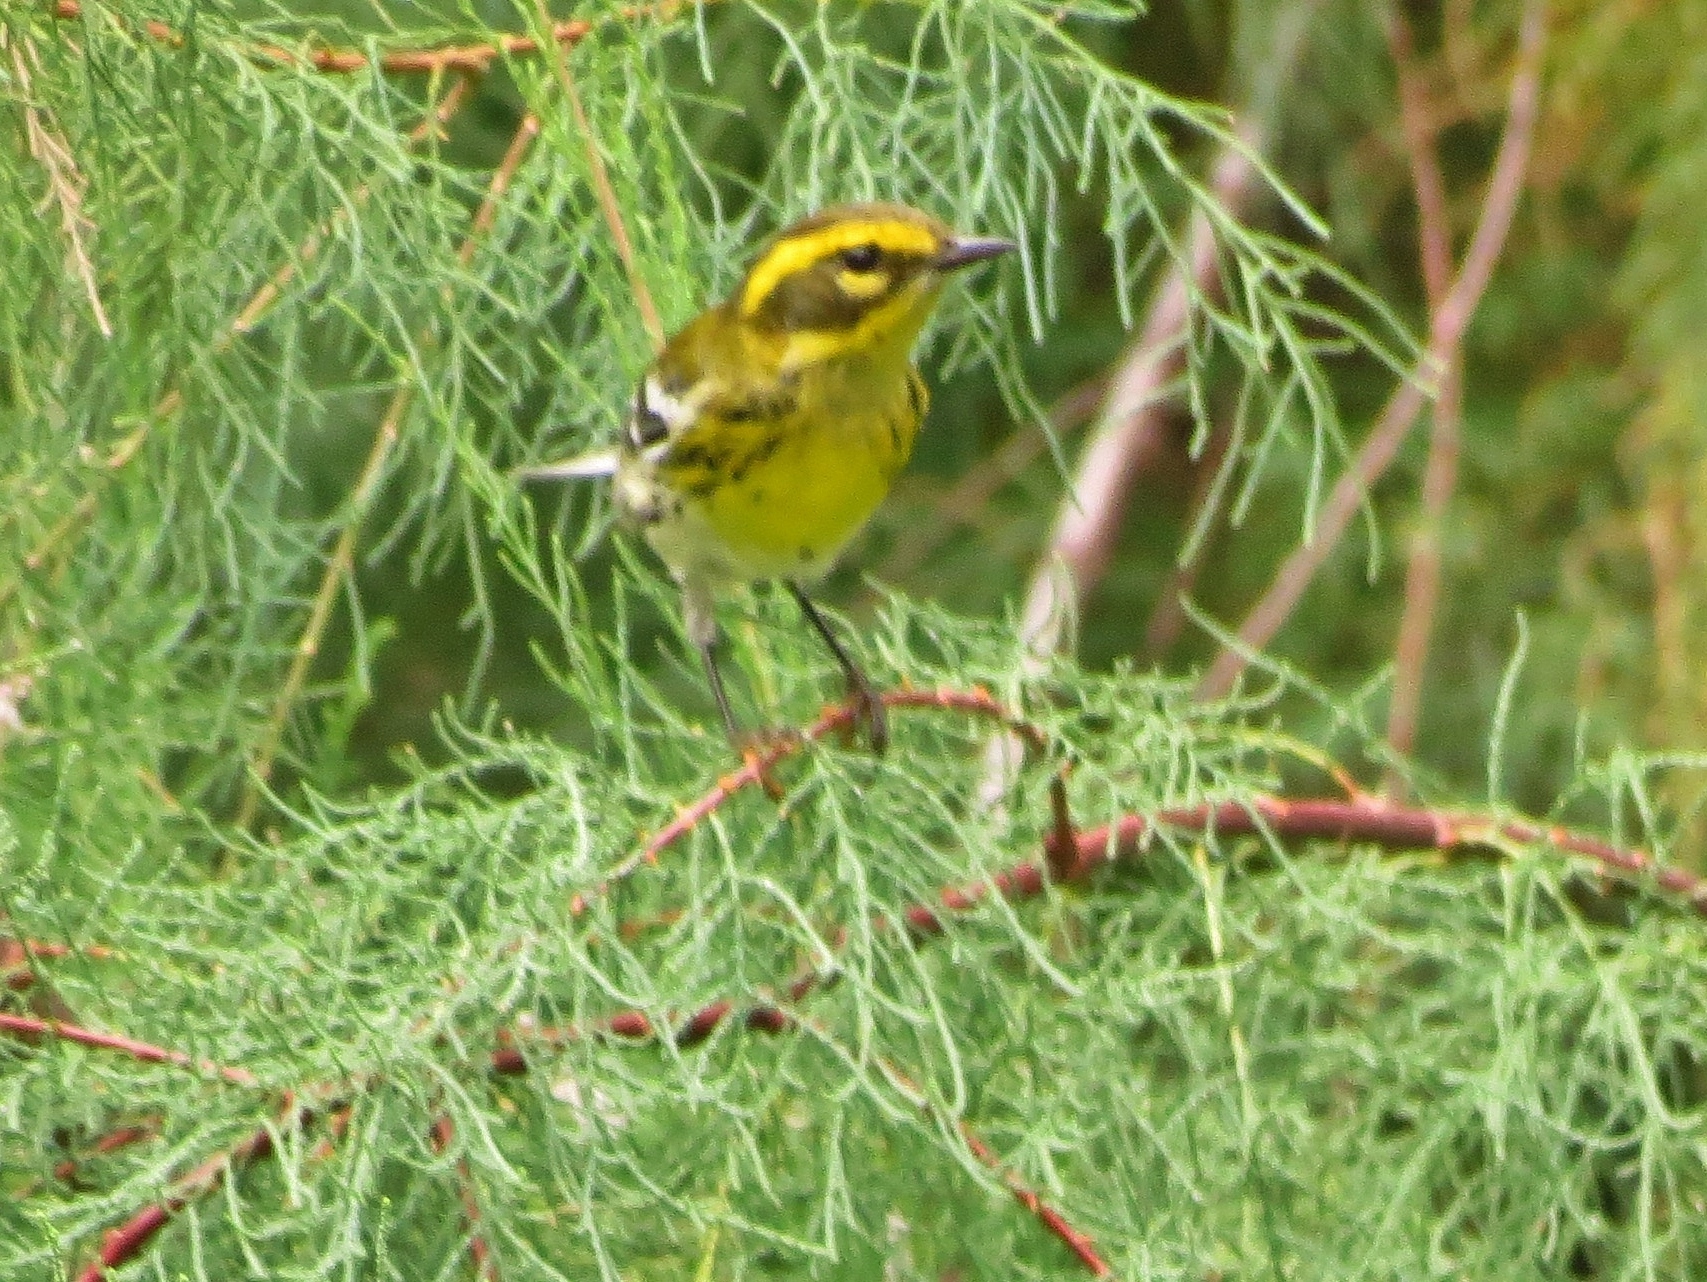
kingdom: Animalia
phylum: Chordata
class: Aves
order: Passeriformes
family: Parulidae
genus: Setophaga
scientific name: Setophaga townsendi
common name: Townsend's warbler
